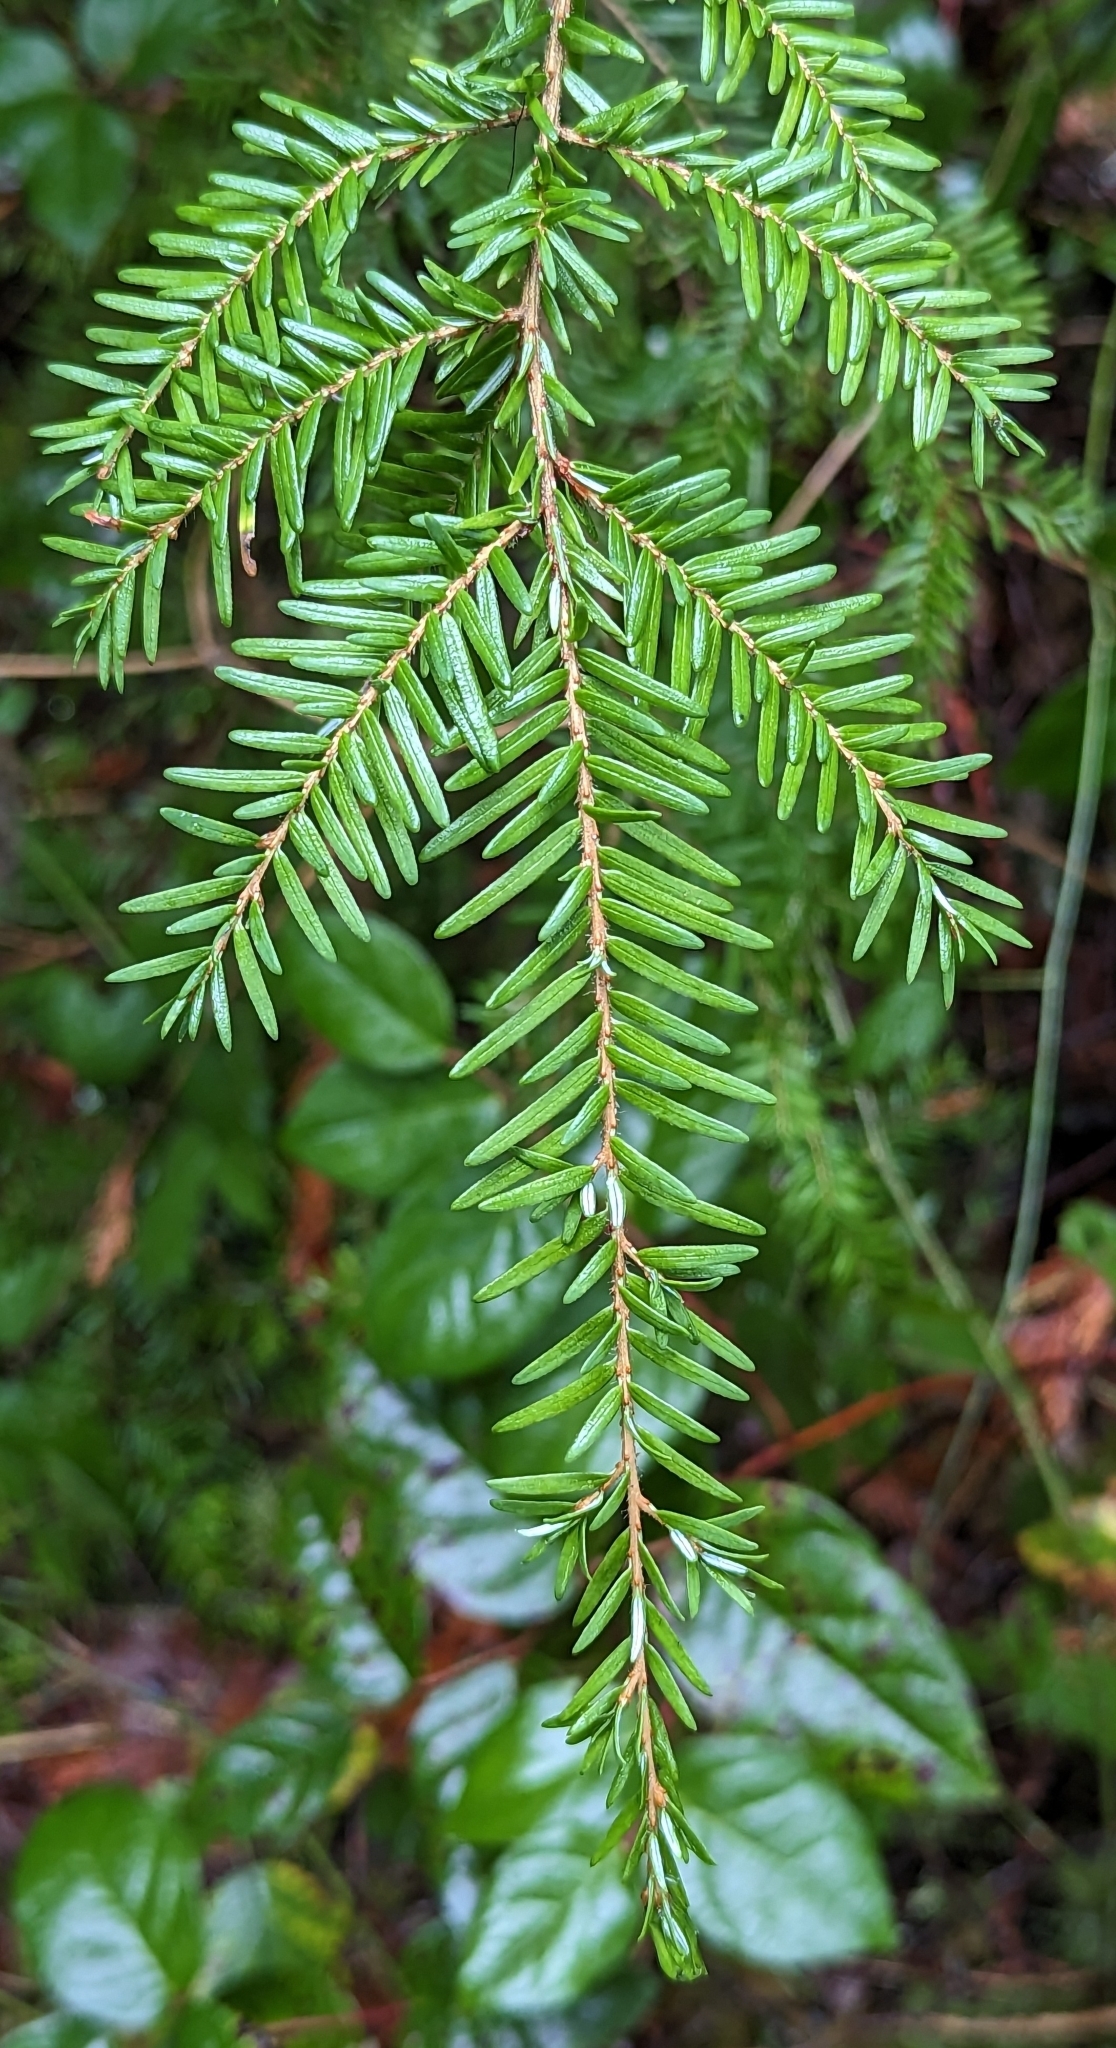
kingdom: Plantae
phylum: Tracheophyta
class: Pinopsida
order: Pinales
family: Pinaceae
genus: Tsuga
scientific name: Tsuga heterophylla
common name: Western hemlock
